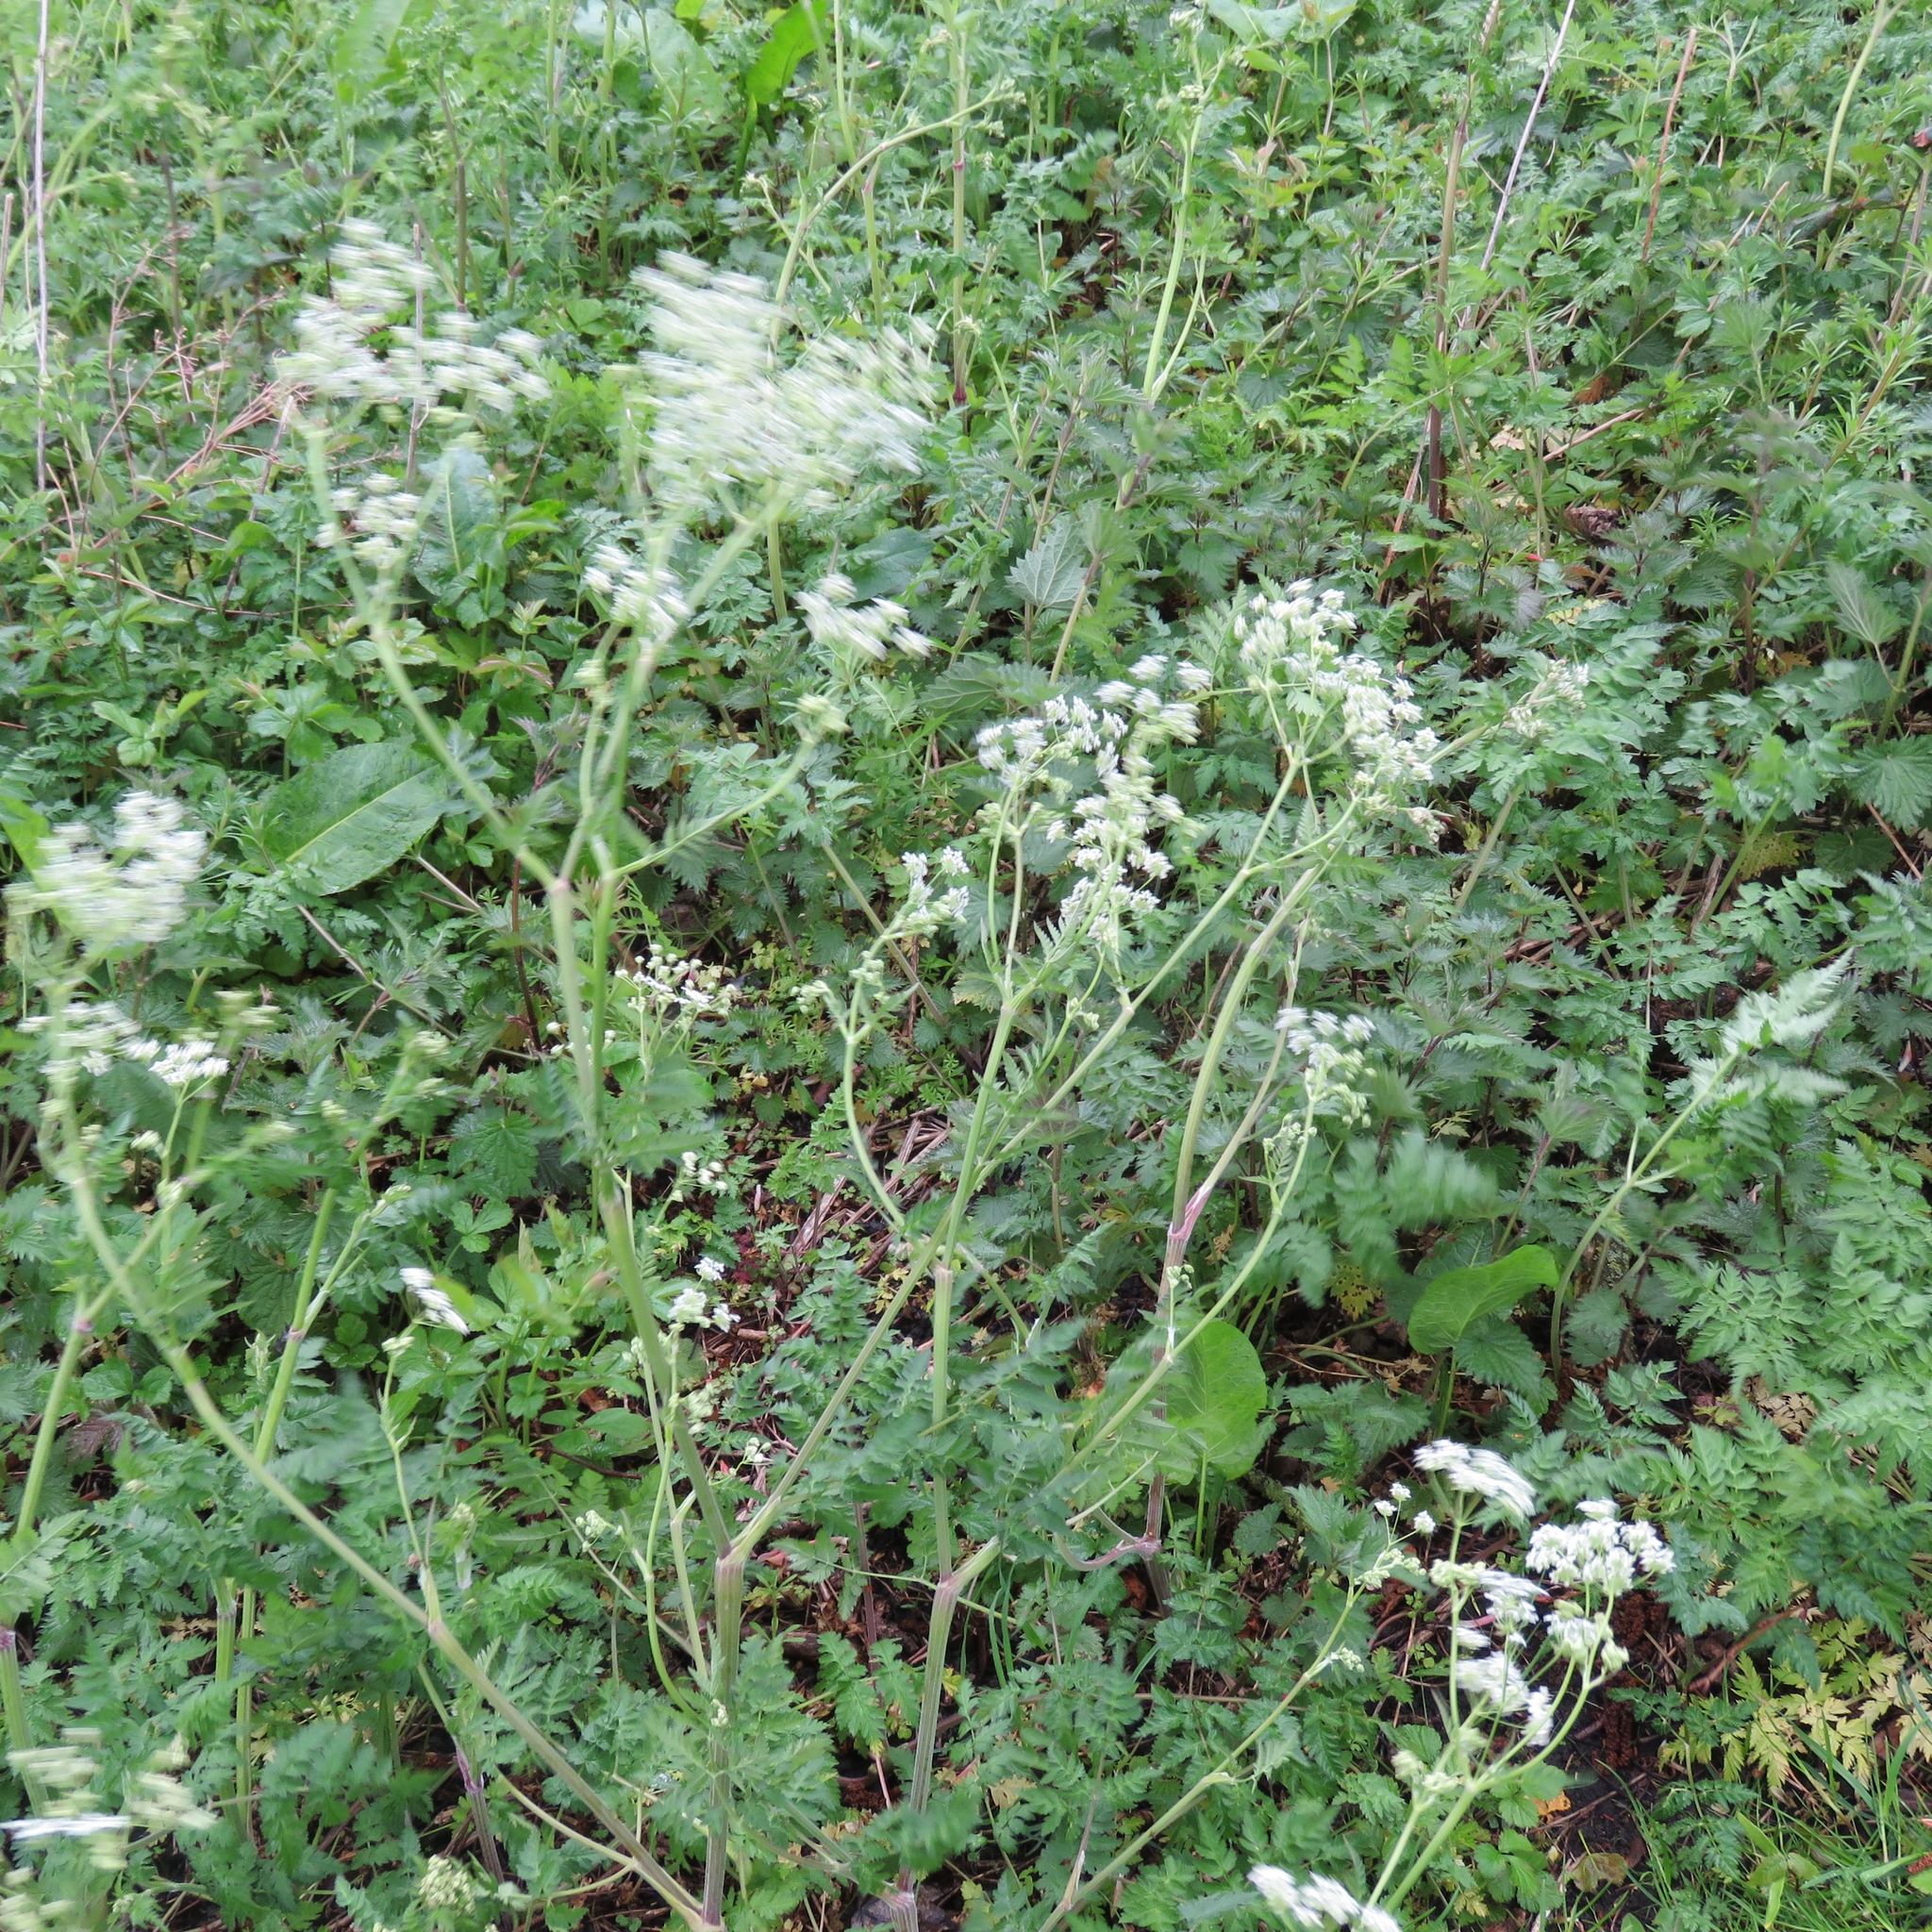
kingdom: Plantae
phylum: Tracheophyta
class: Magnoliopsida
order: Apiales
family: Apiaceae
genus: Anthriscus
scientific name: Anthriscus sylvestris
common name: Cow parsley
